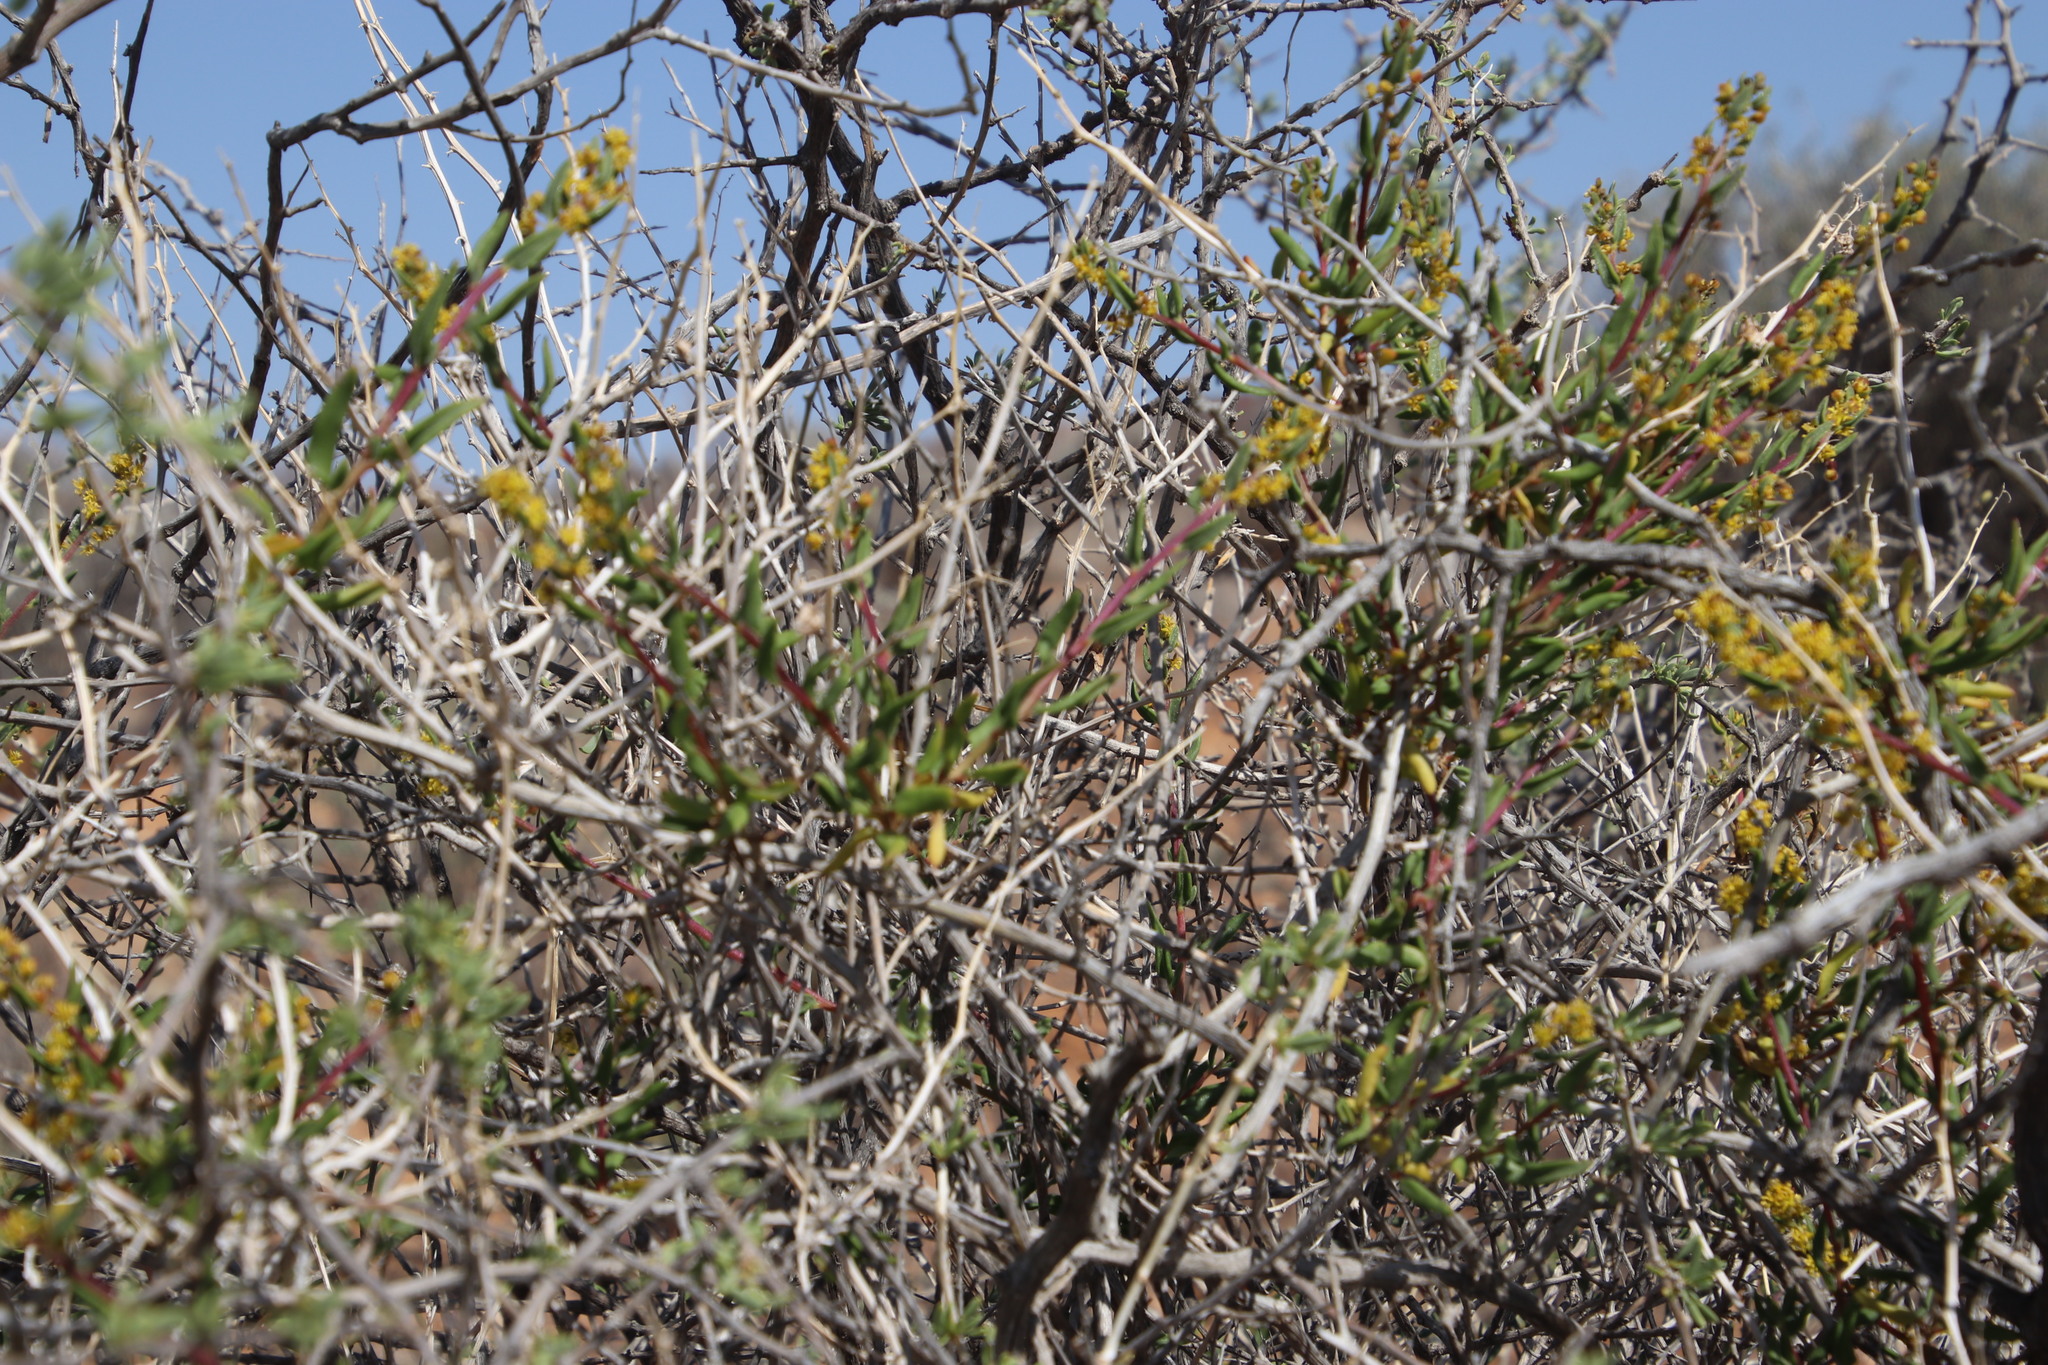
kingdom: Plantae
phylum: Tracheophyta
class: Magnoliopsida
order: Caryophyllales
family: Aizoaceae
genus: Tetragonia
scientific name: Tetragonia fruticosa
